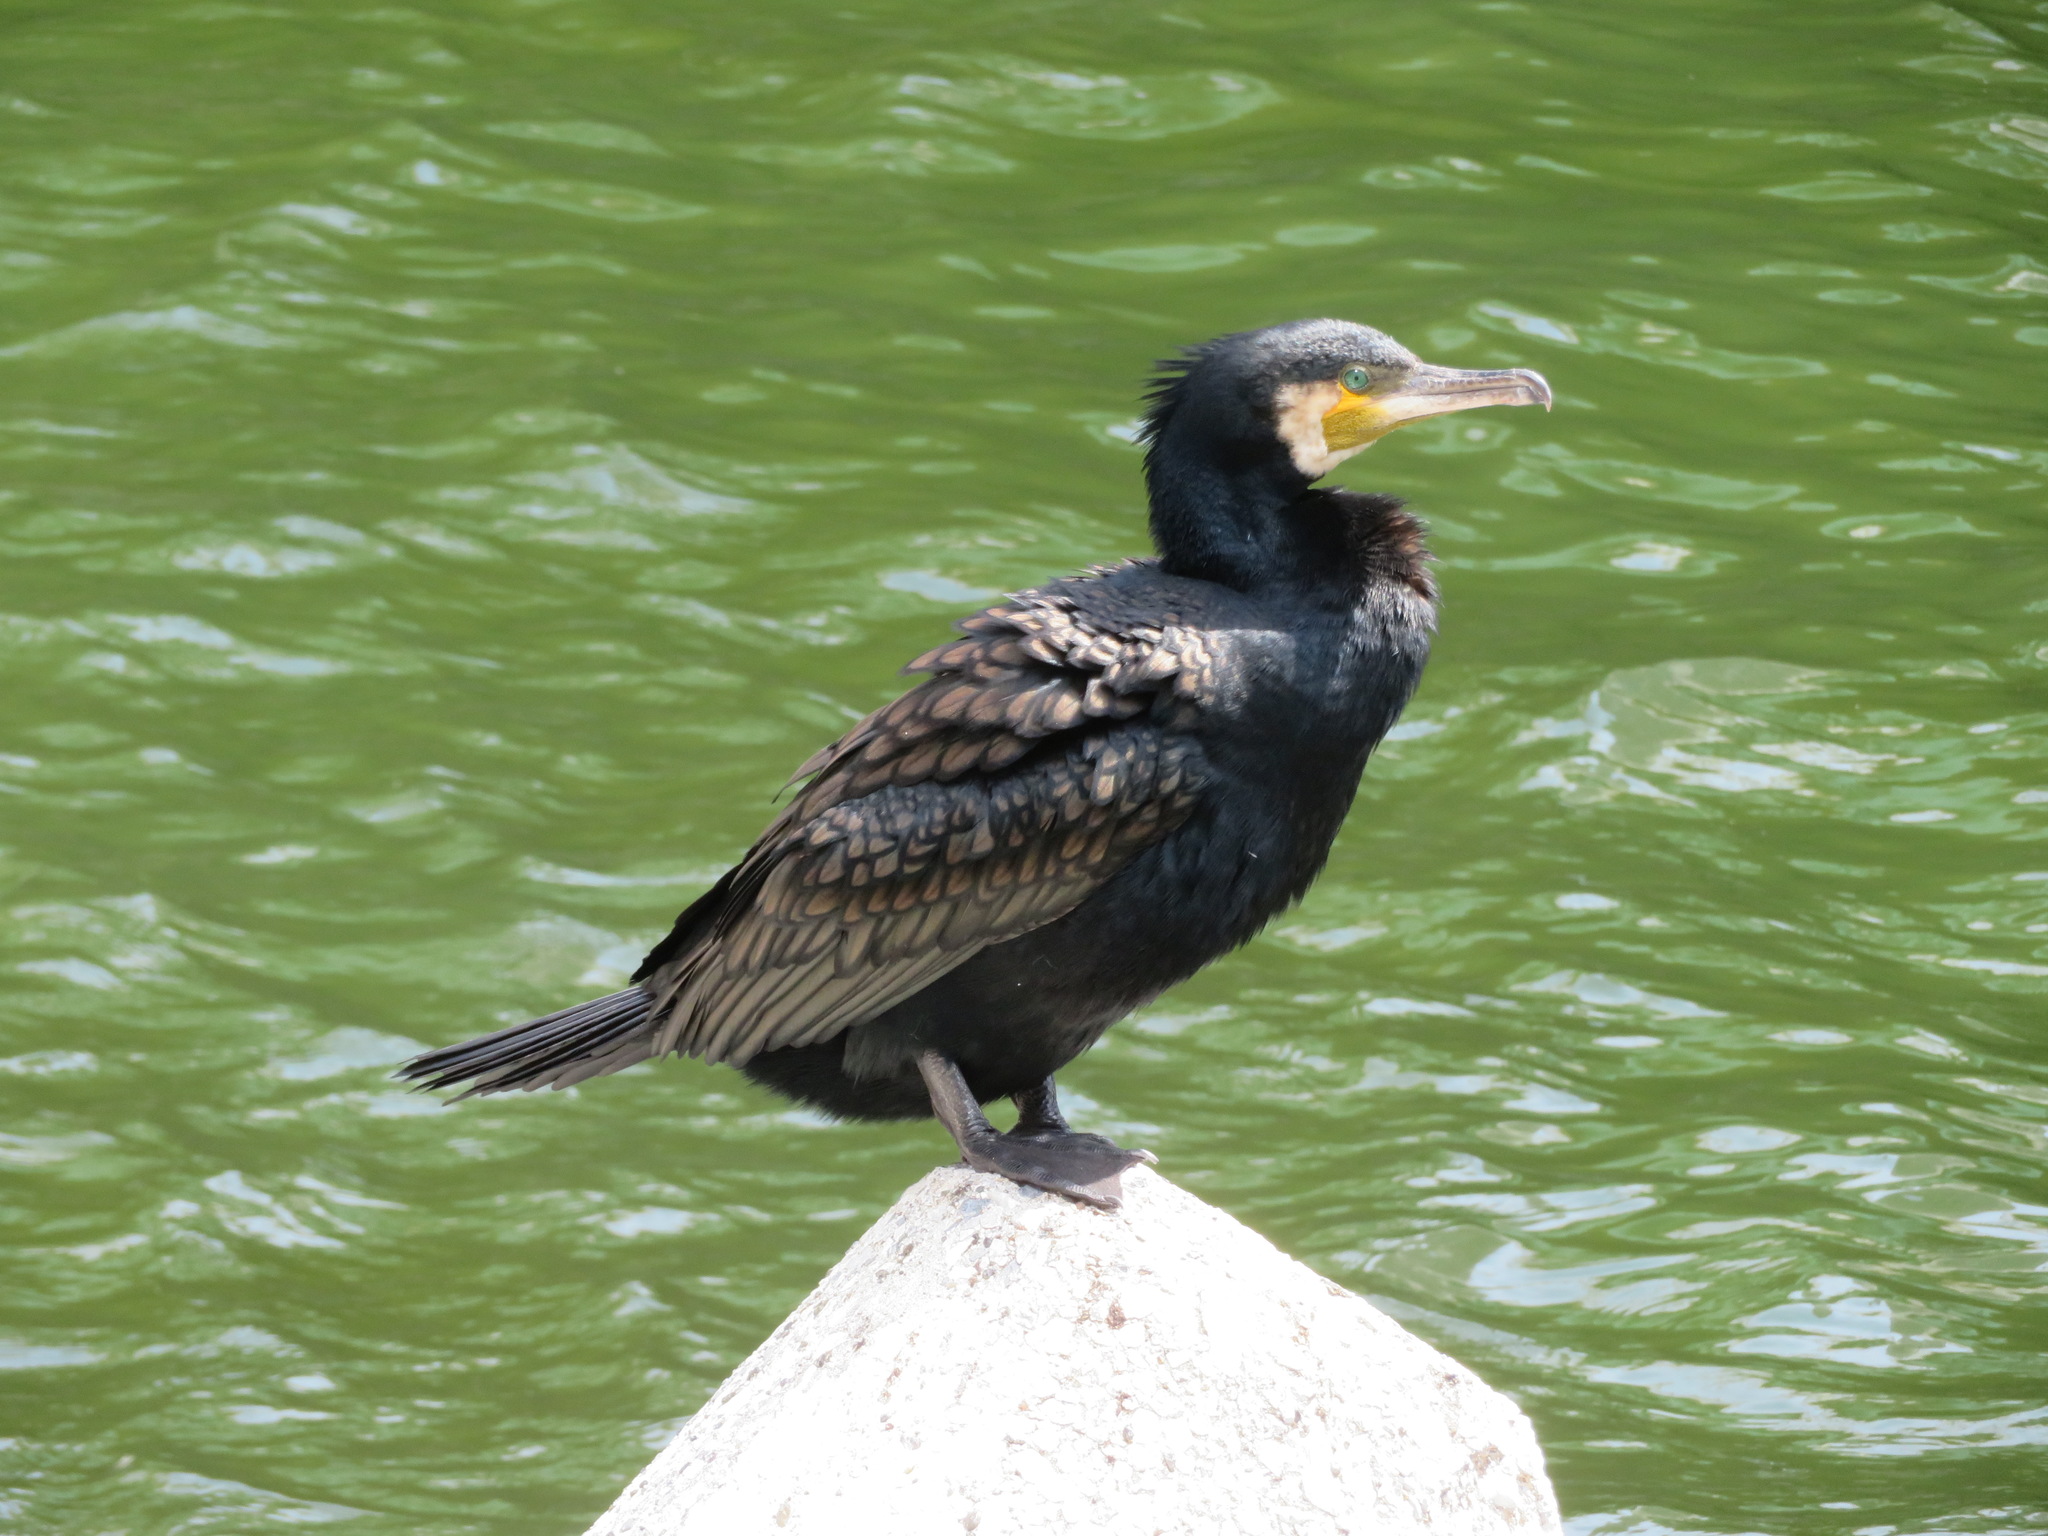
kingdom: Animalia
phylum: Chordata
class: Aves
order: Suliformes
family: Phalacrocoracidae
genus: Phalacrocorax
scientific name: Phalacrocorax carbo
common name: Great cormorant
